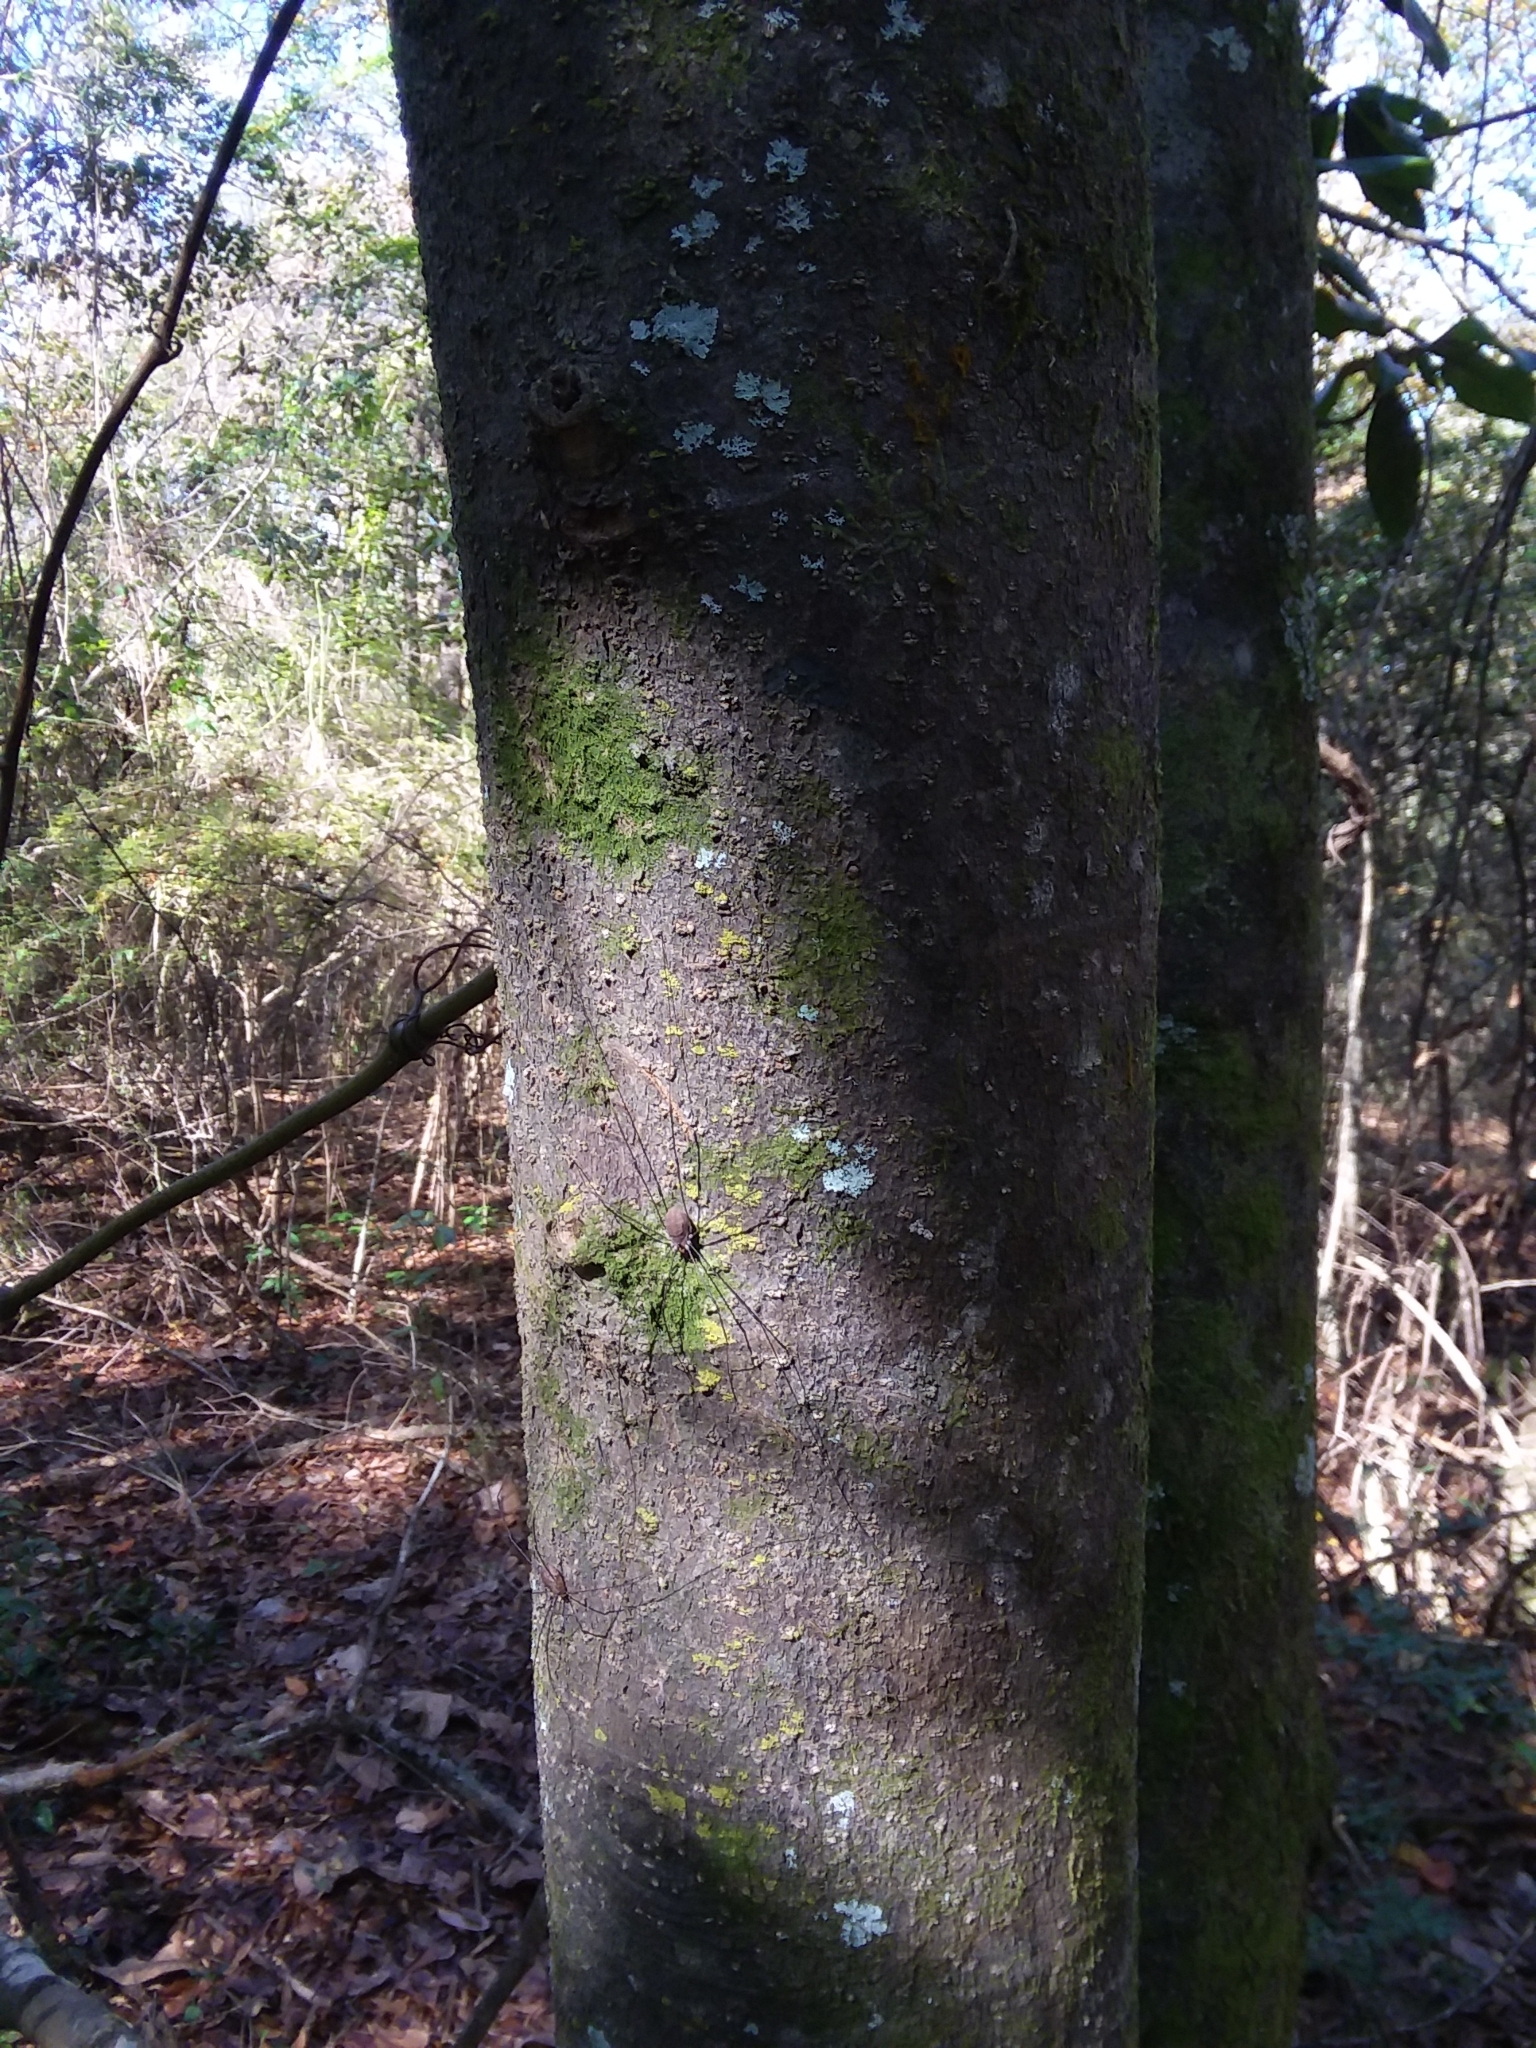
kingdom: Plantae
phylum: Tracheophyta
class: Magnoliopsida
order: Magnoliales
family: Magnoliaceae
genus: Magnolia
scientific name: Magnolia grandiflora
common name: Southern magnolia
